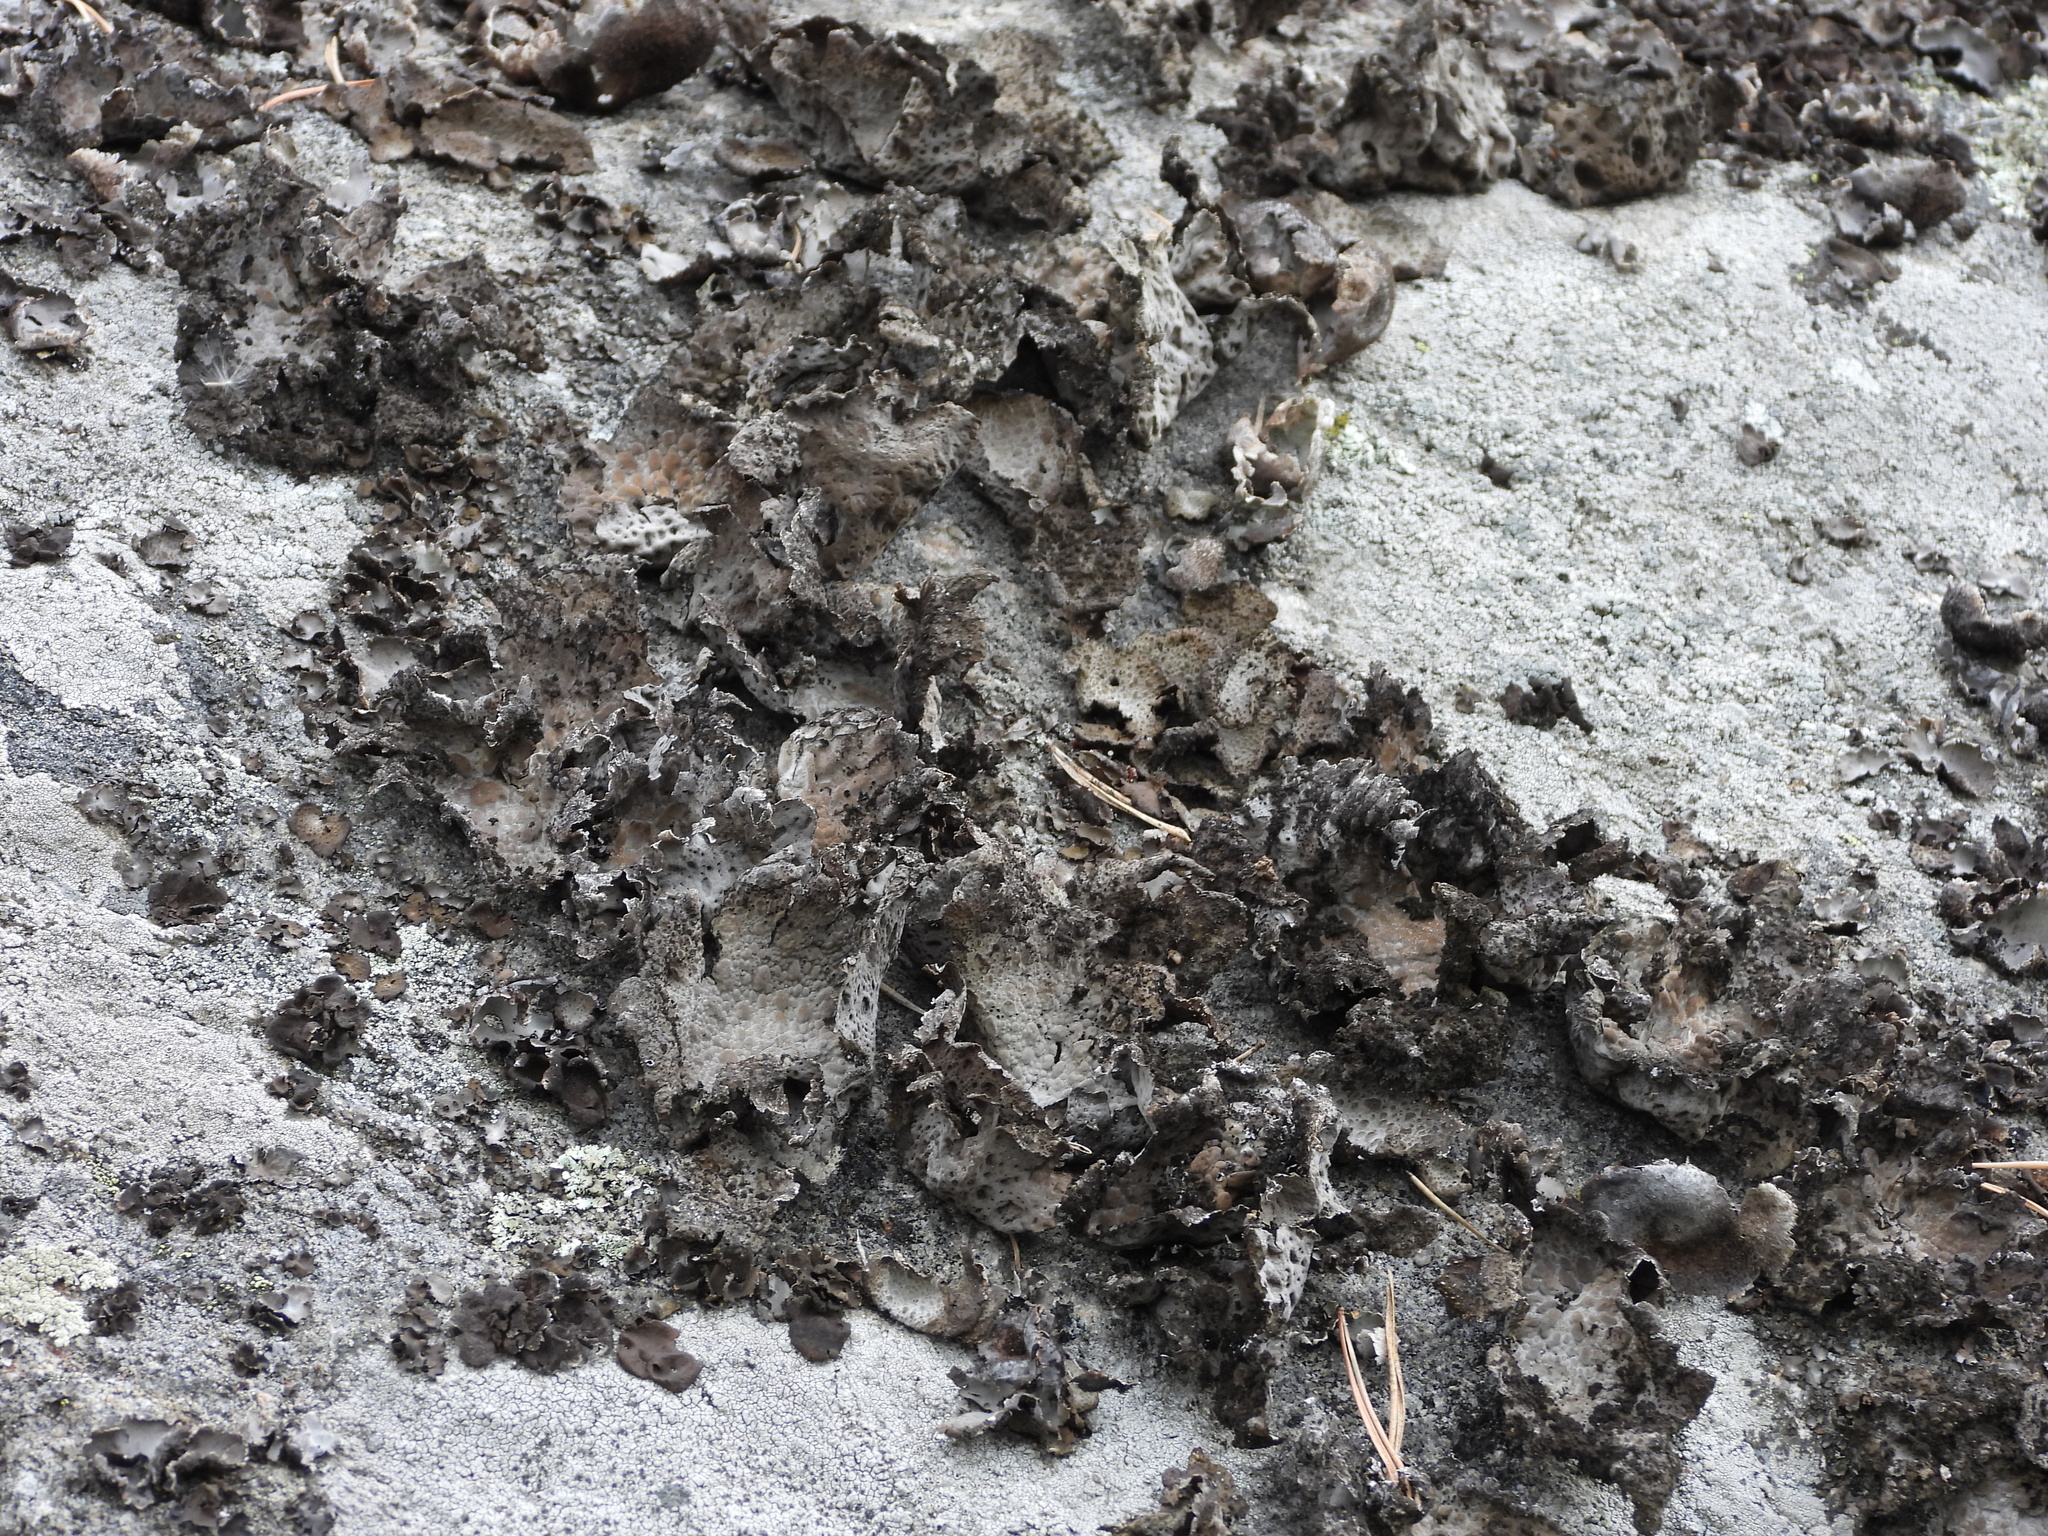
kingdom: Fungi
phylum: Ascomycota
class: Lecanoromycetes
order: Umbilicariales
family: Umbilicariaceae
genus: Lasallia
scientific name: Lasallia pustulata
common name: Blistered toadskin lichen
